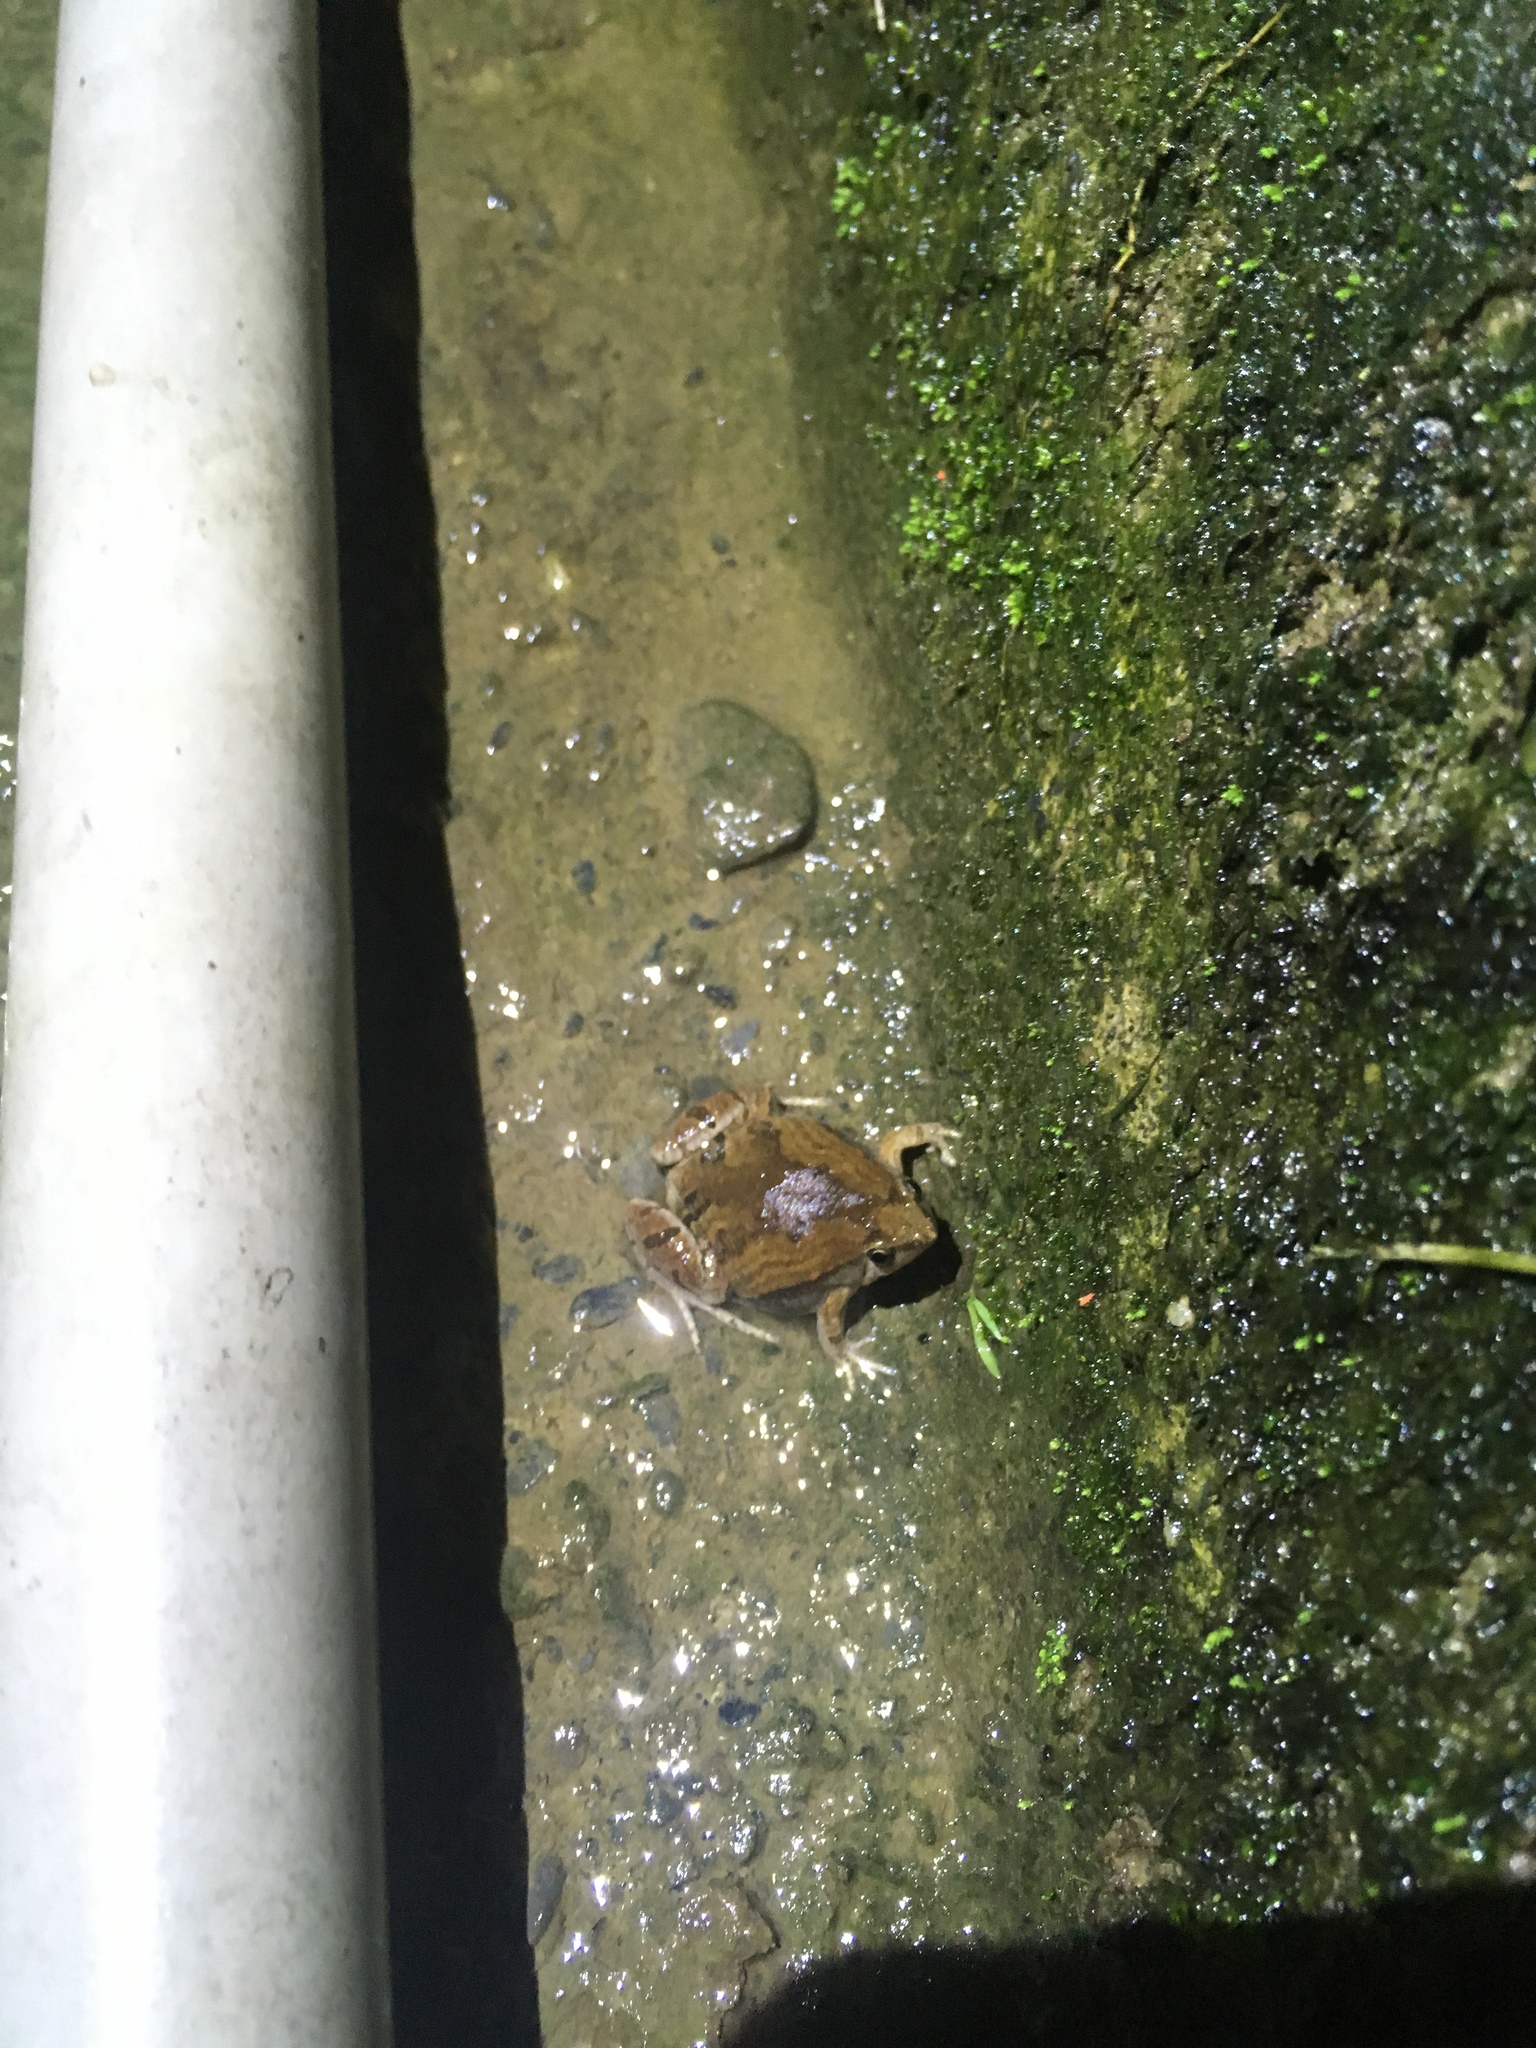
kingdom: Animalia
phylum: Chordata
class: Amphibia
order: Anura
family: Microhylidae
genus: Microhyla
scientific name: Microhyla fissipes
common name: Ornate narrow-mouthed frog
